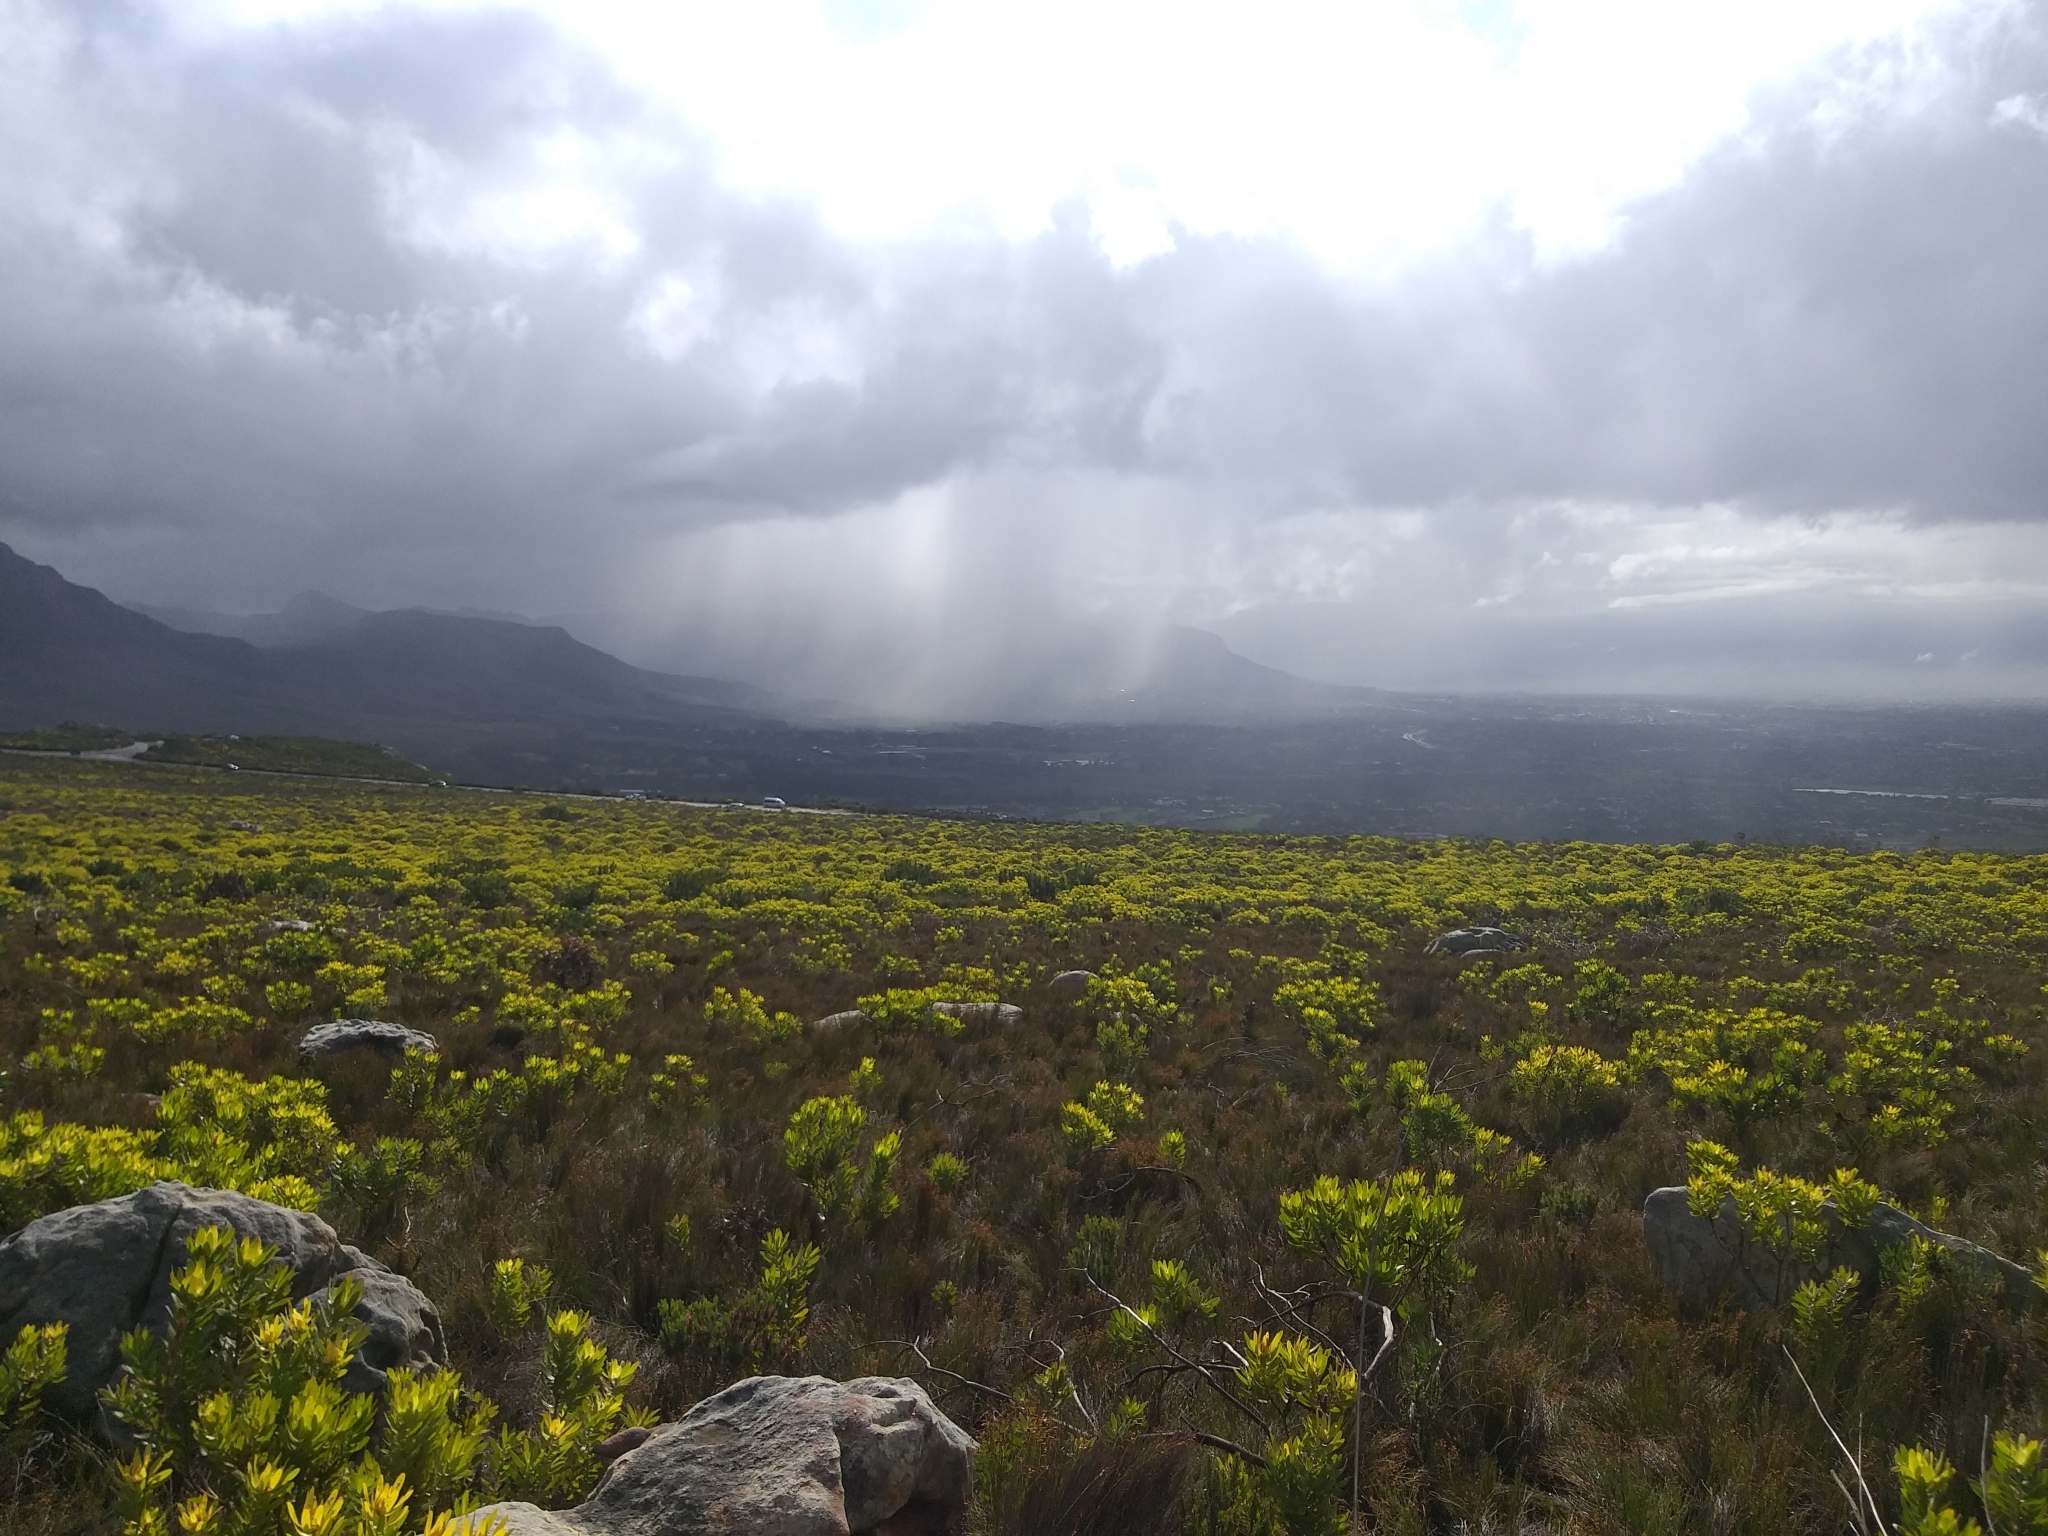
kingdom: Plantae
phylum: Tracheophyta
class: Magnoliopsida
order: Proteales
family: Proteaceae
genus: Leucadendron
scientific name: Leucadendron laureolum
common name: Golden sunshinebush
